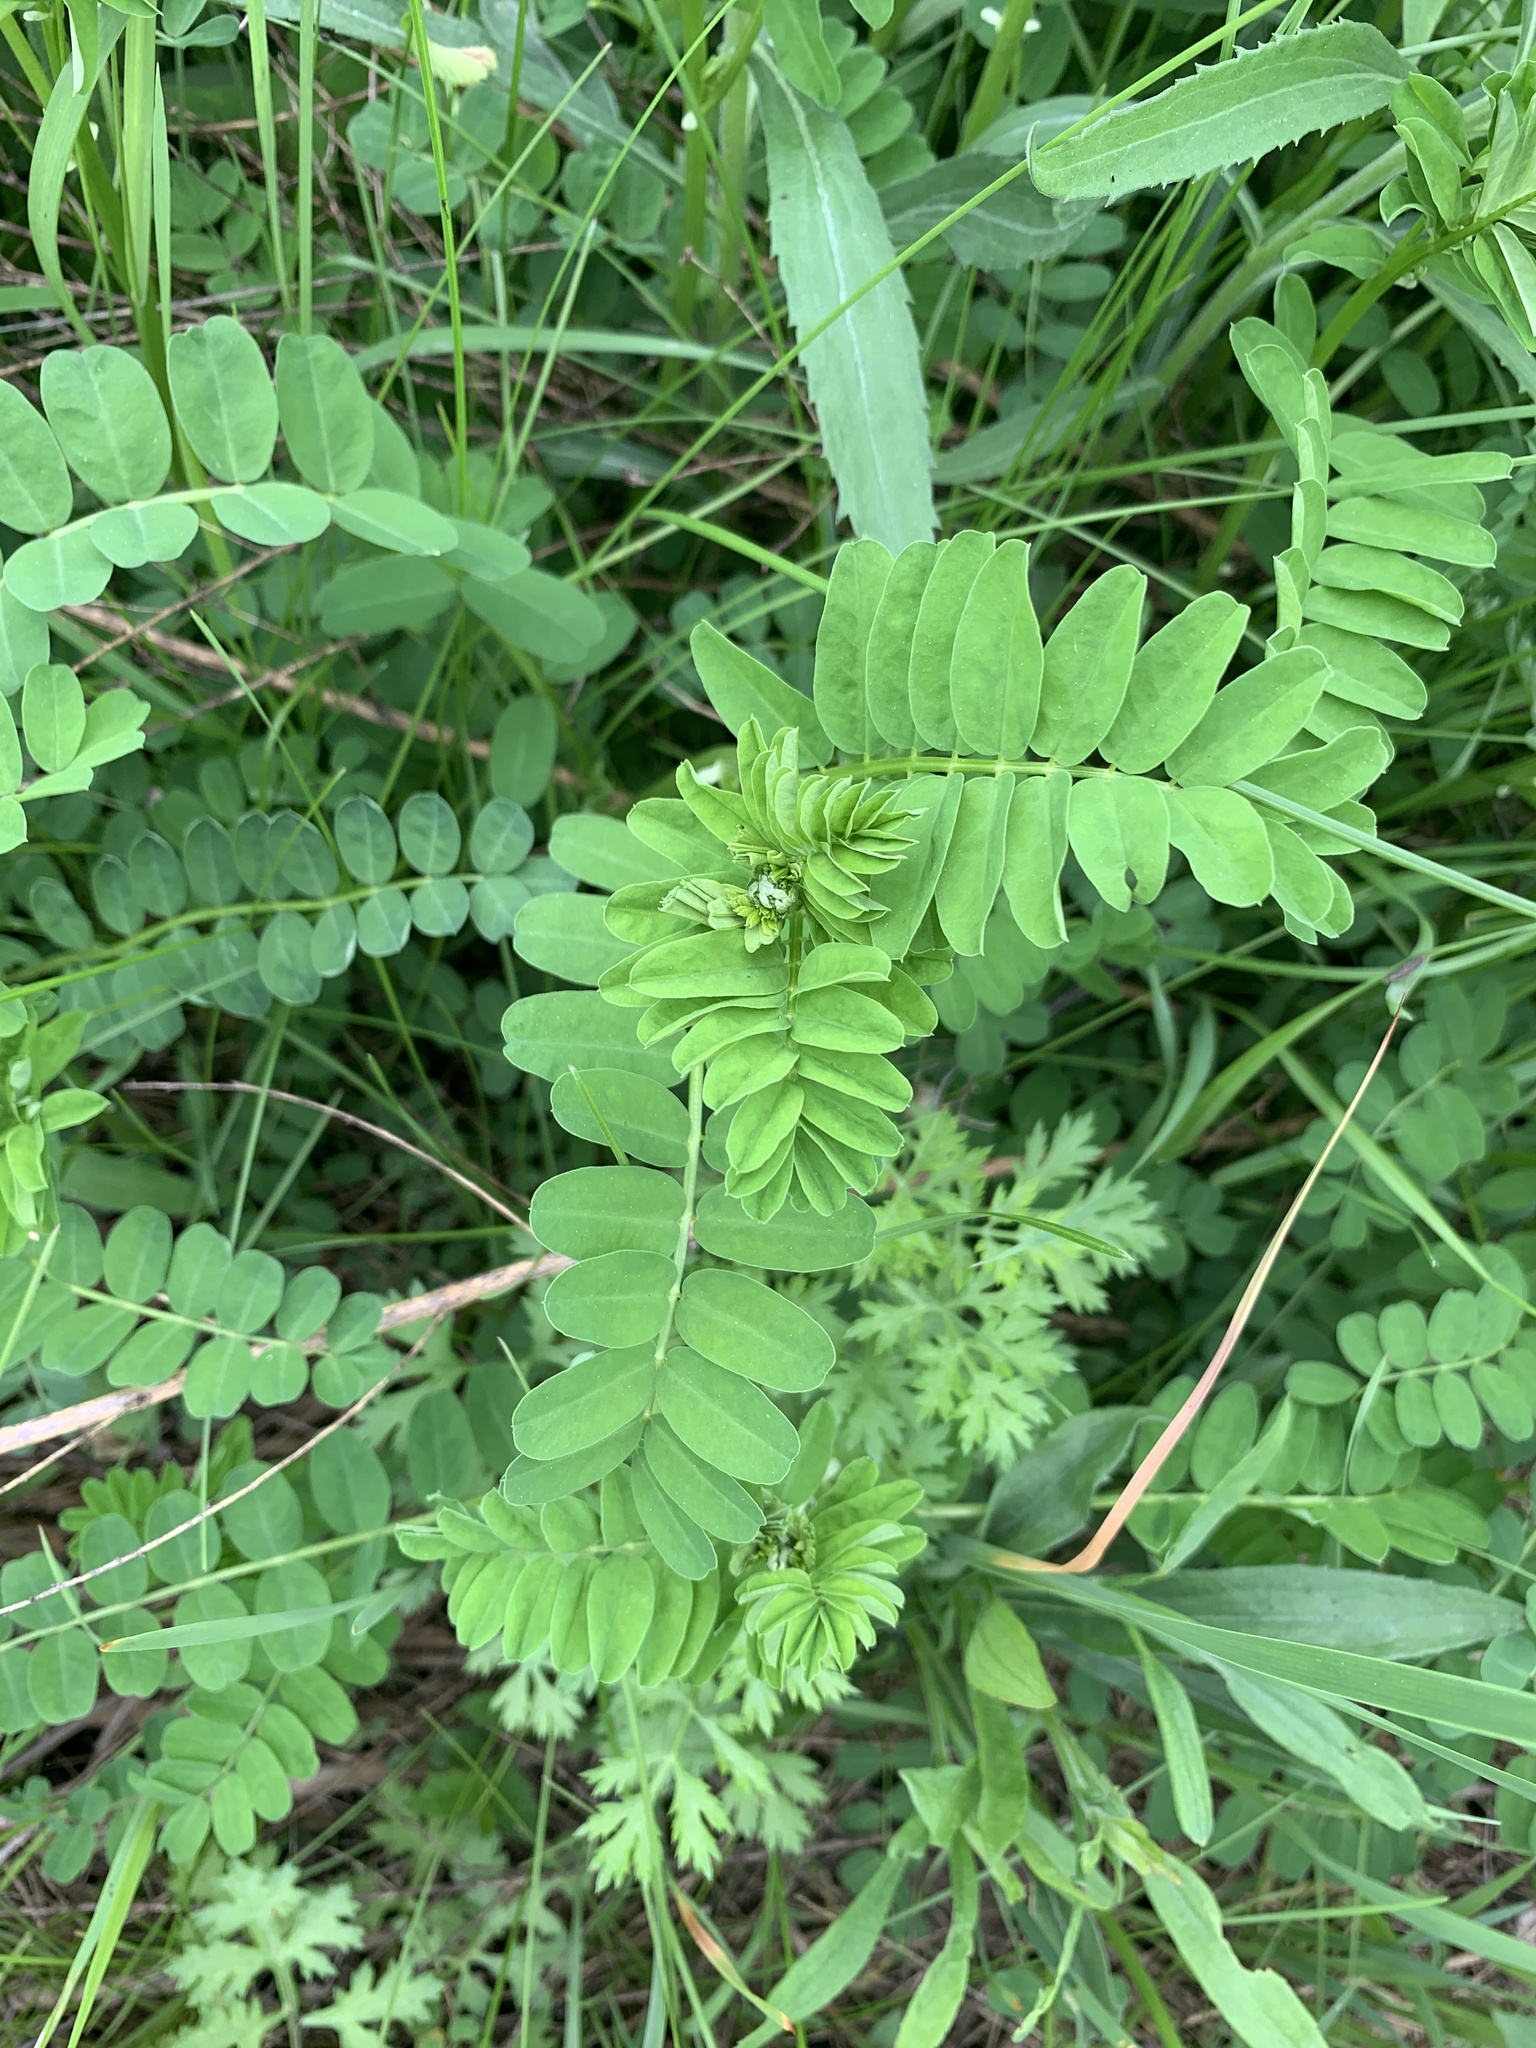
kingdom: Plantae
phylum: Tracheophyta
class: Magnoliopsida
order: Fabales
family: Fabaceae
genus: Coronilla
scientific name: Coronilla varia
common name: Crownvetch
